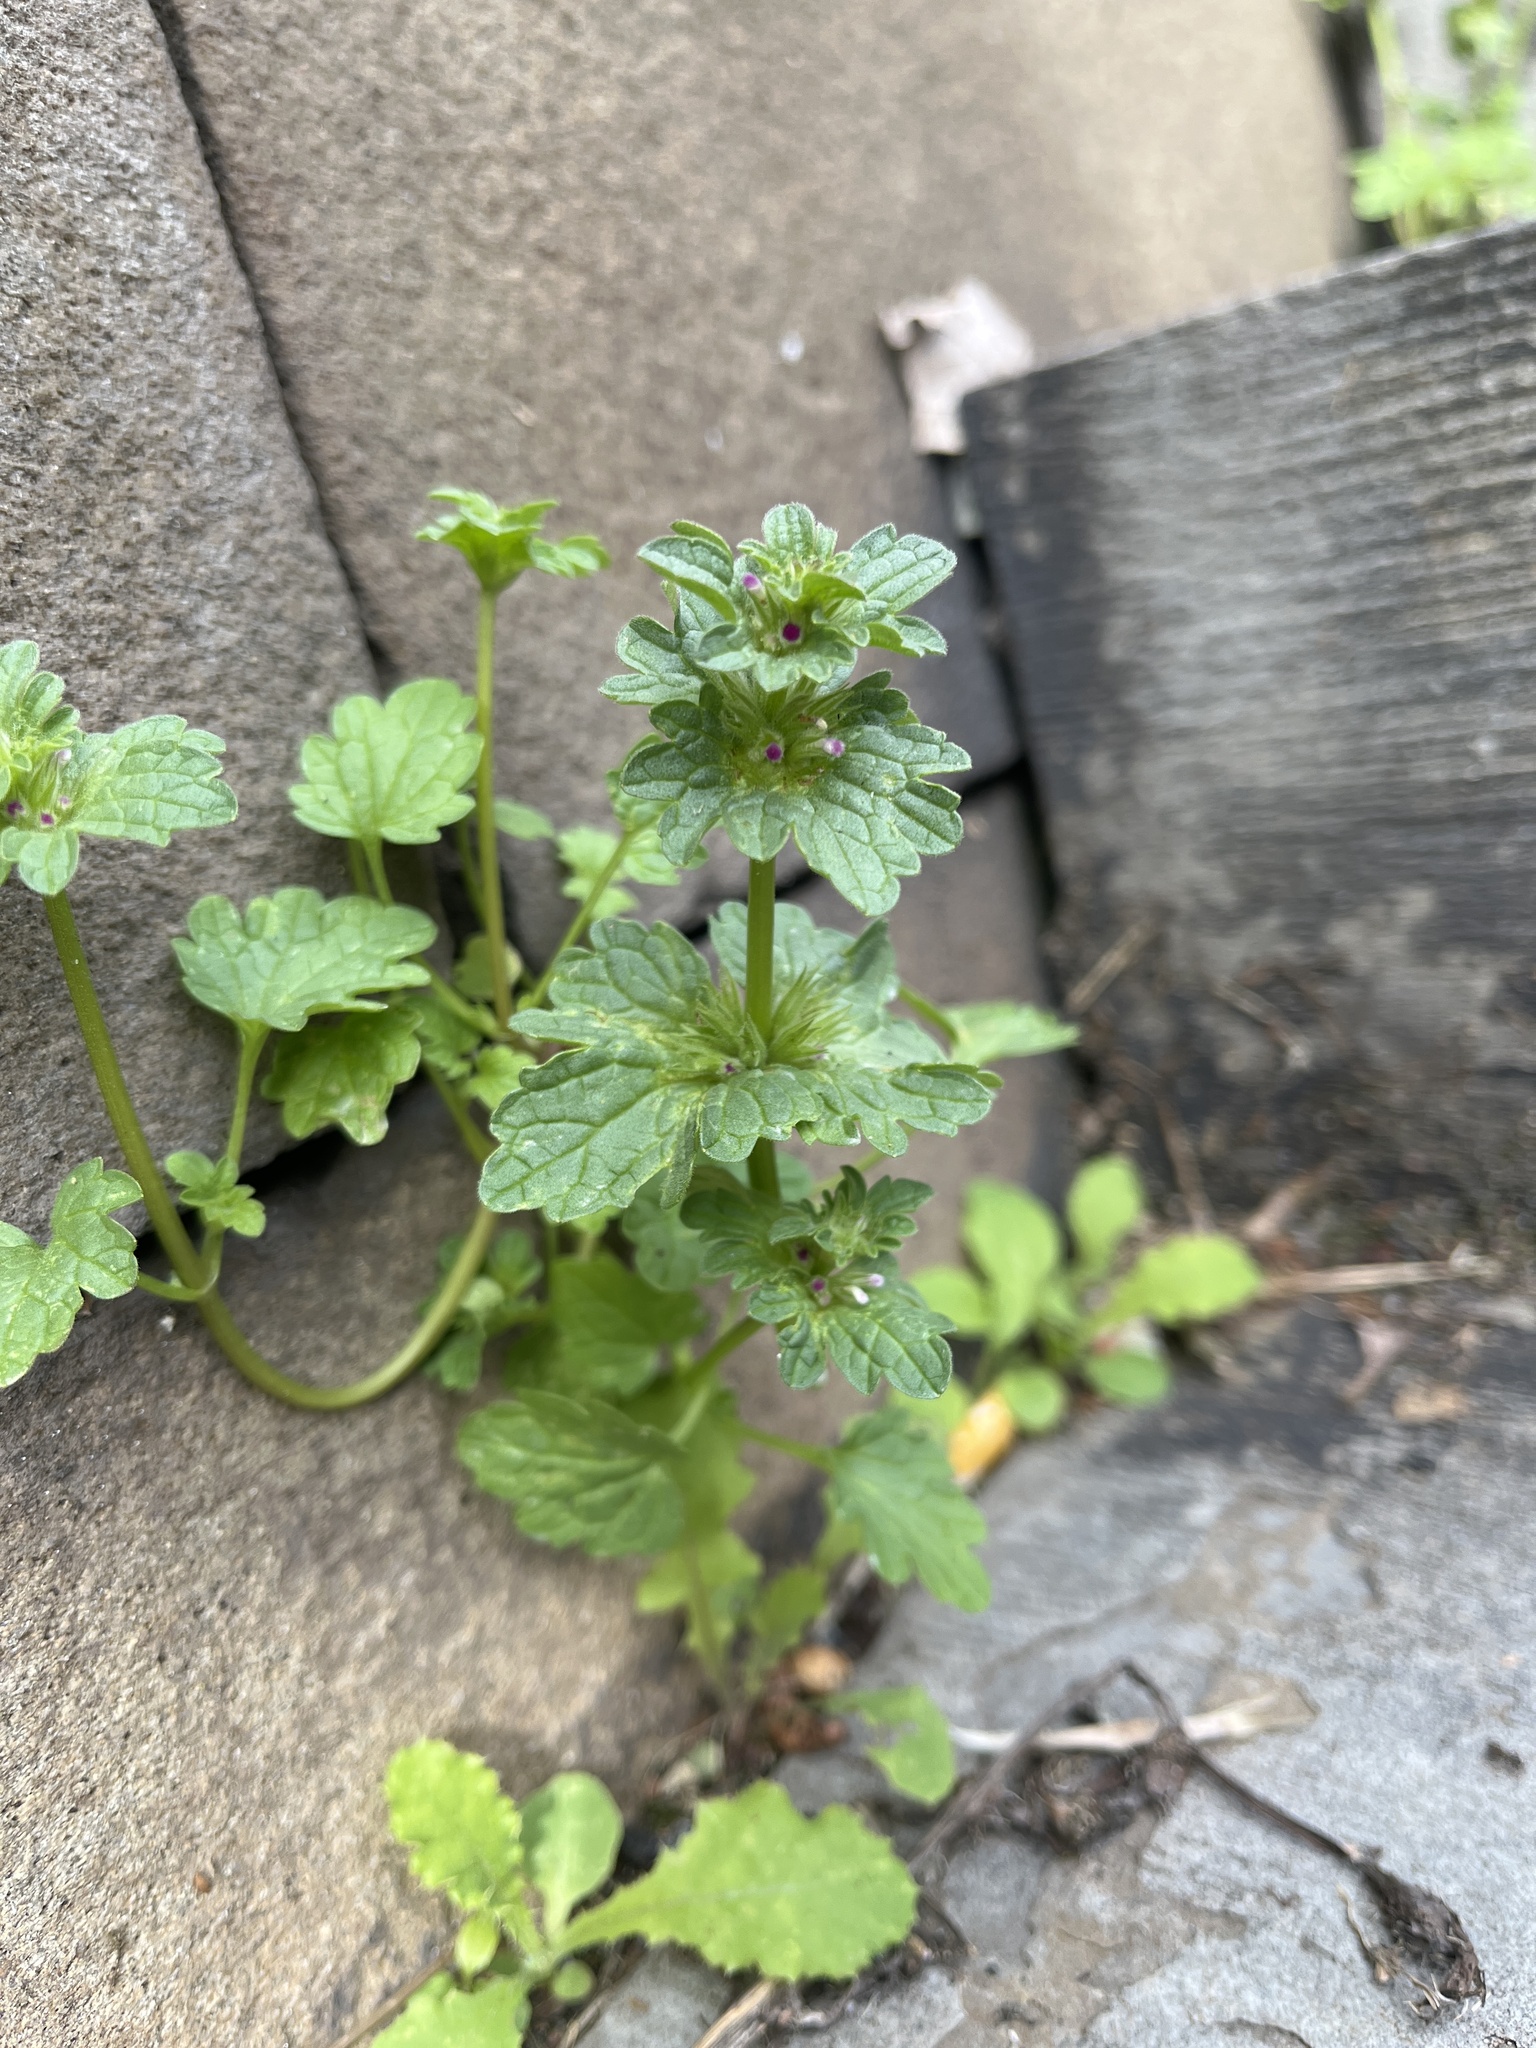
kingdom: Plantae
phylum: Tracheophyta
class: Magnoliopsida
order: Lamiales
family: Lamiaceae
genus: Lamium
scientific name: Lamium amplexicaule
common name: Henbit dead-nettle
